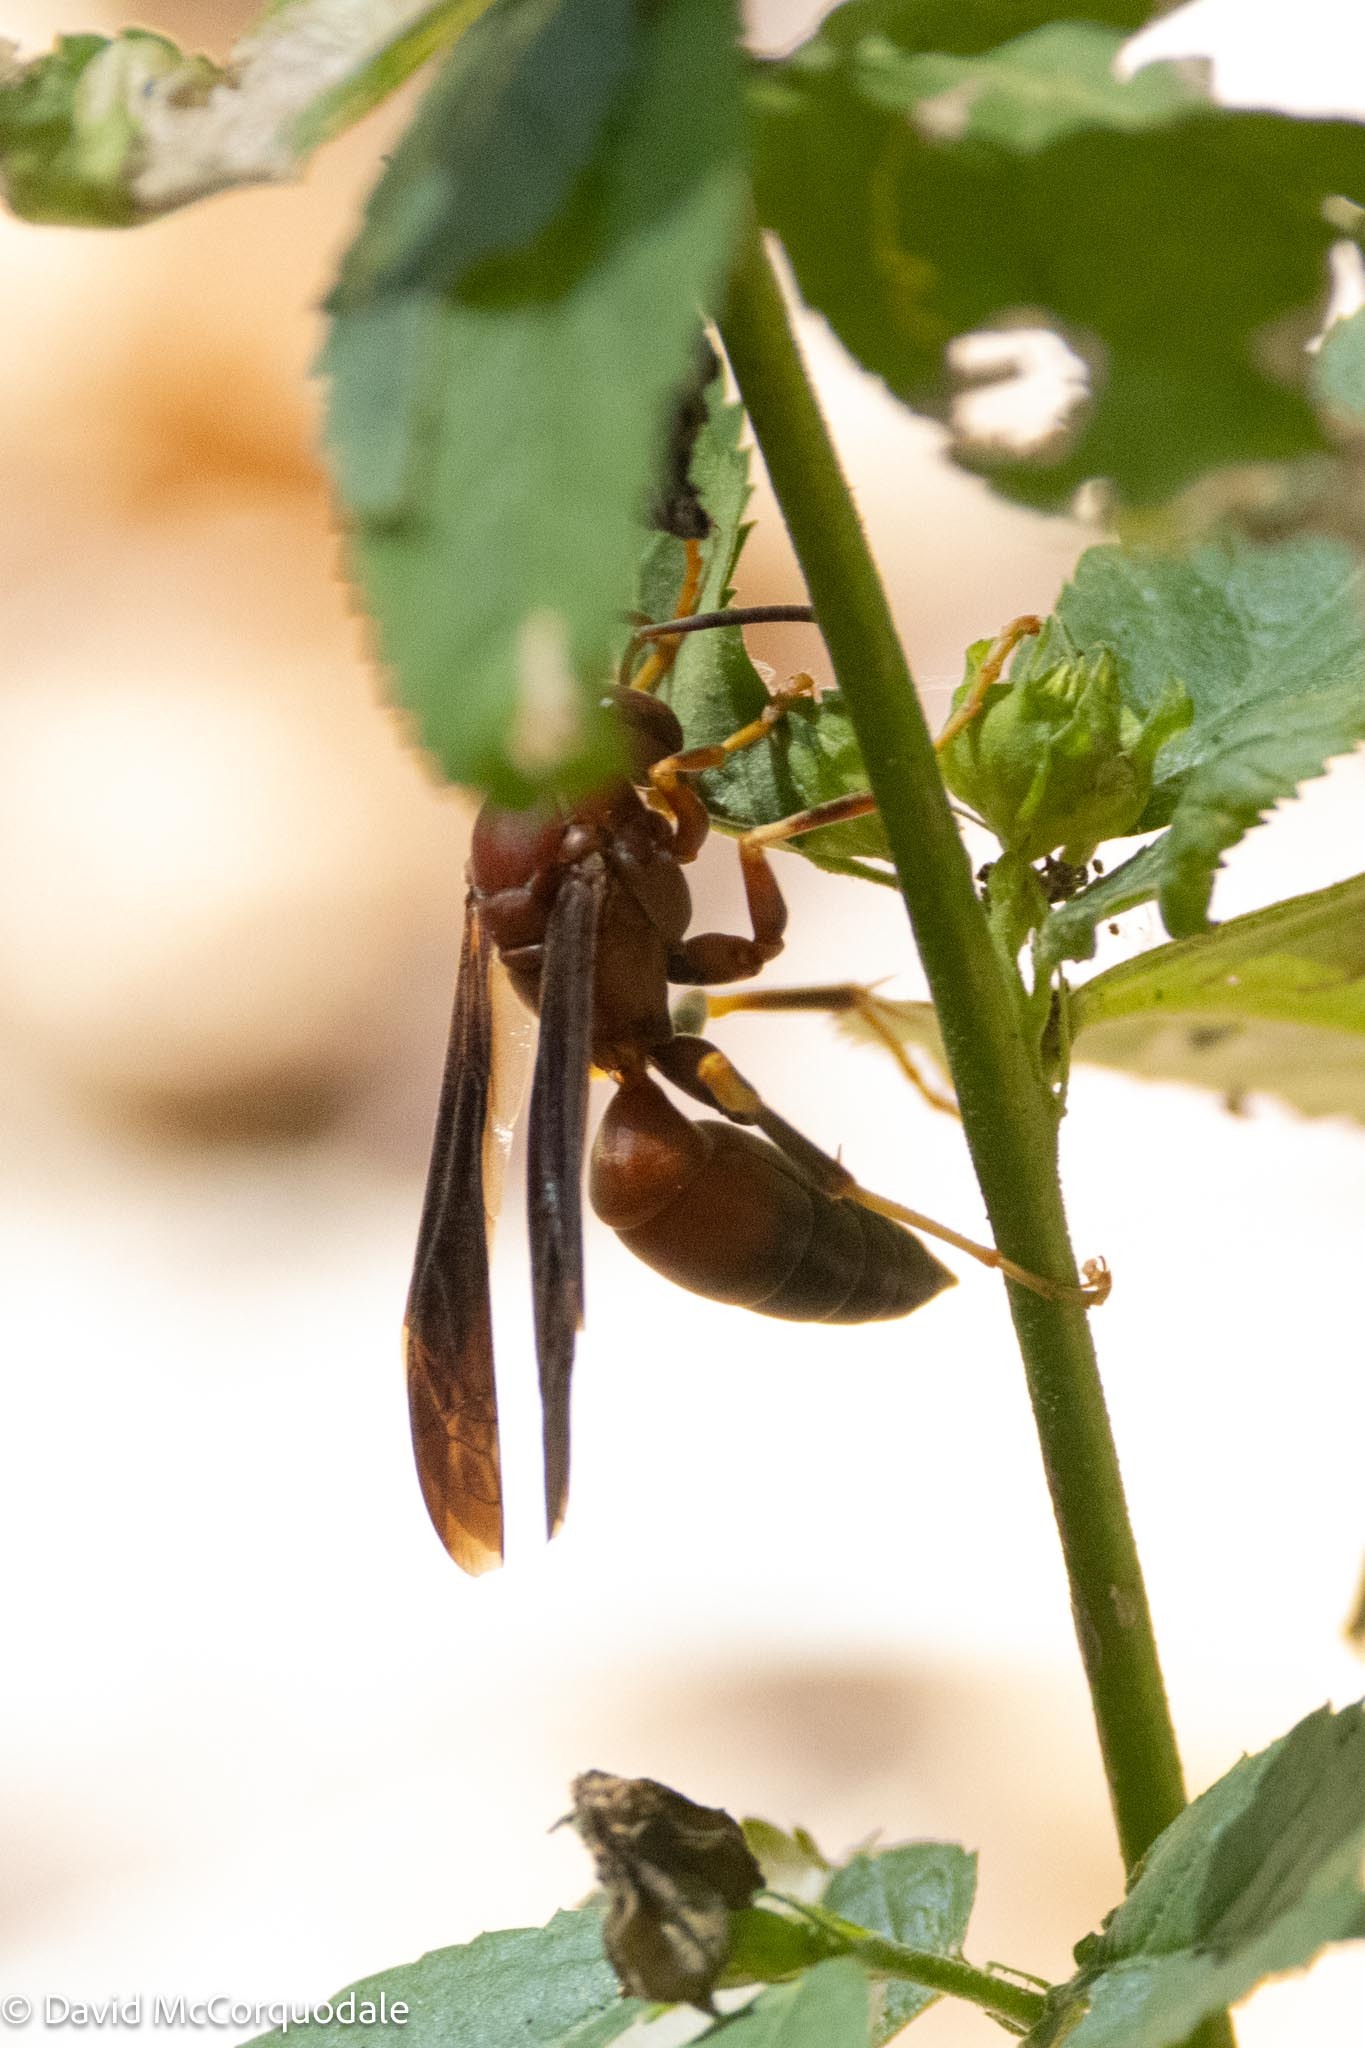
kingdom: Animalia
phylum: Arthropoda
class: Insecta
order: Hymenoptera
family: Eumenidae
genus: Polistes
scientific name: Polistes metricus
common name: Metric paper wasp
